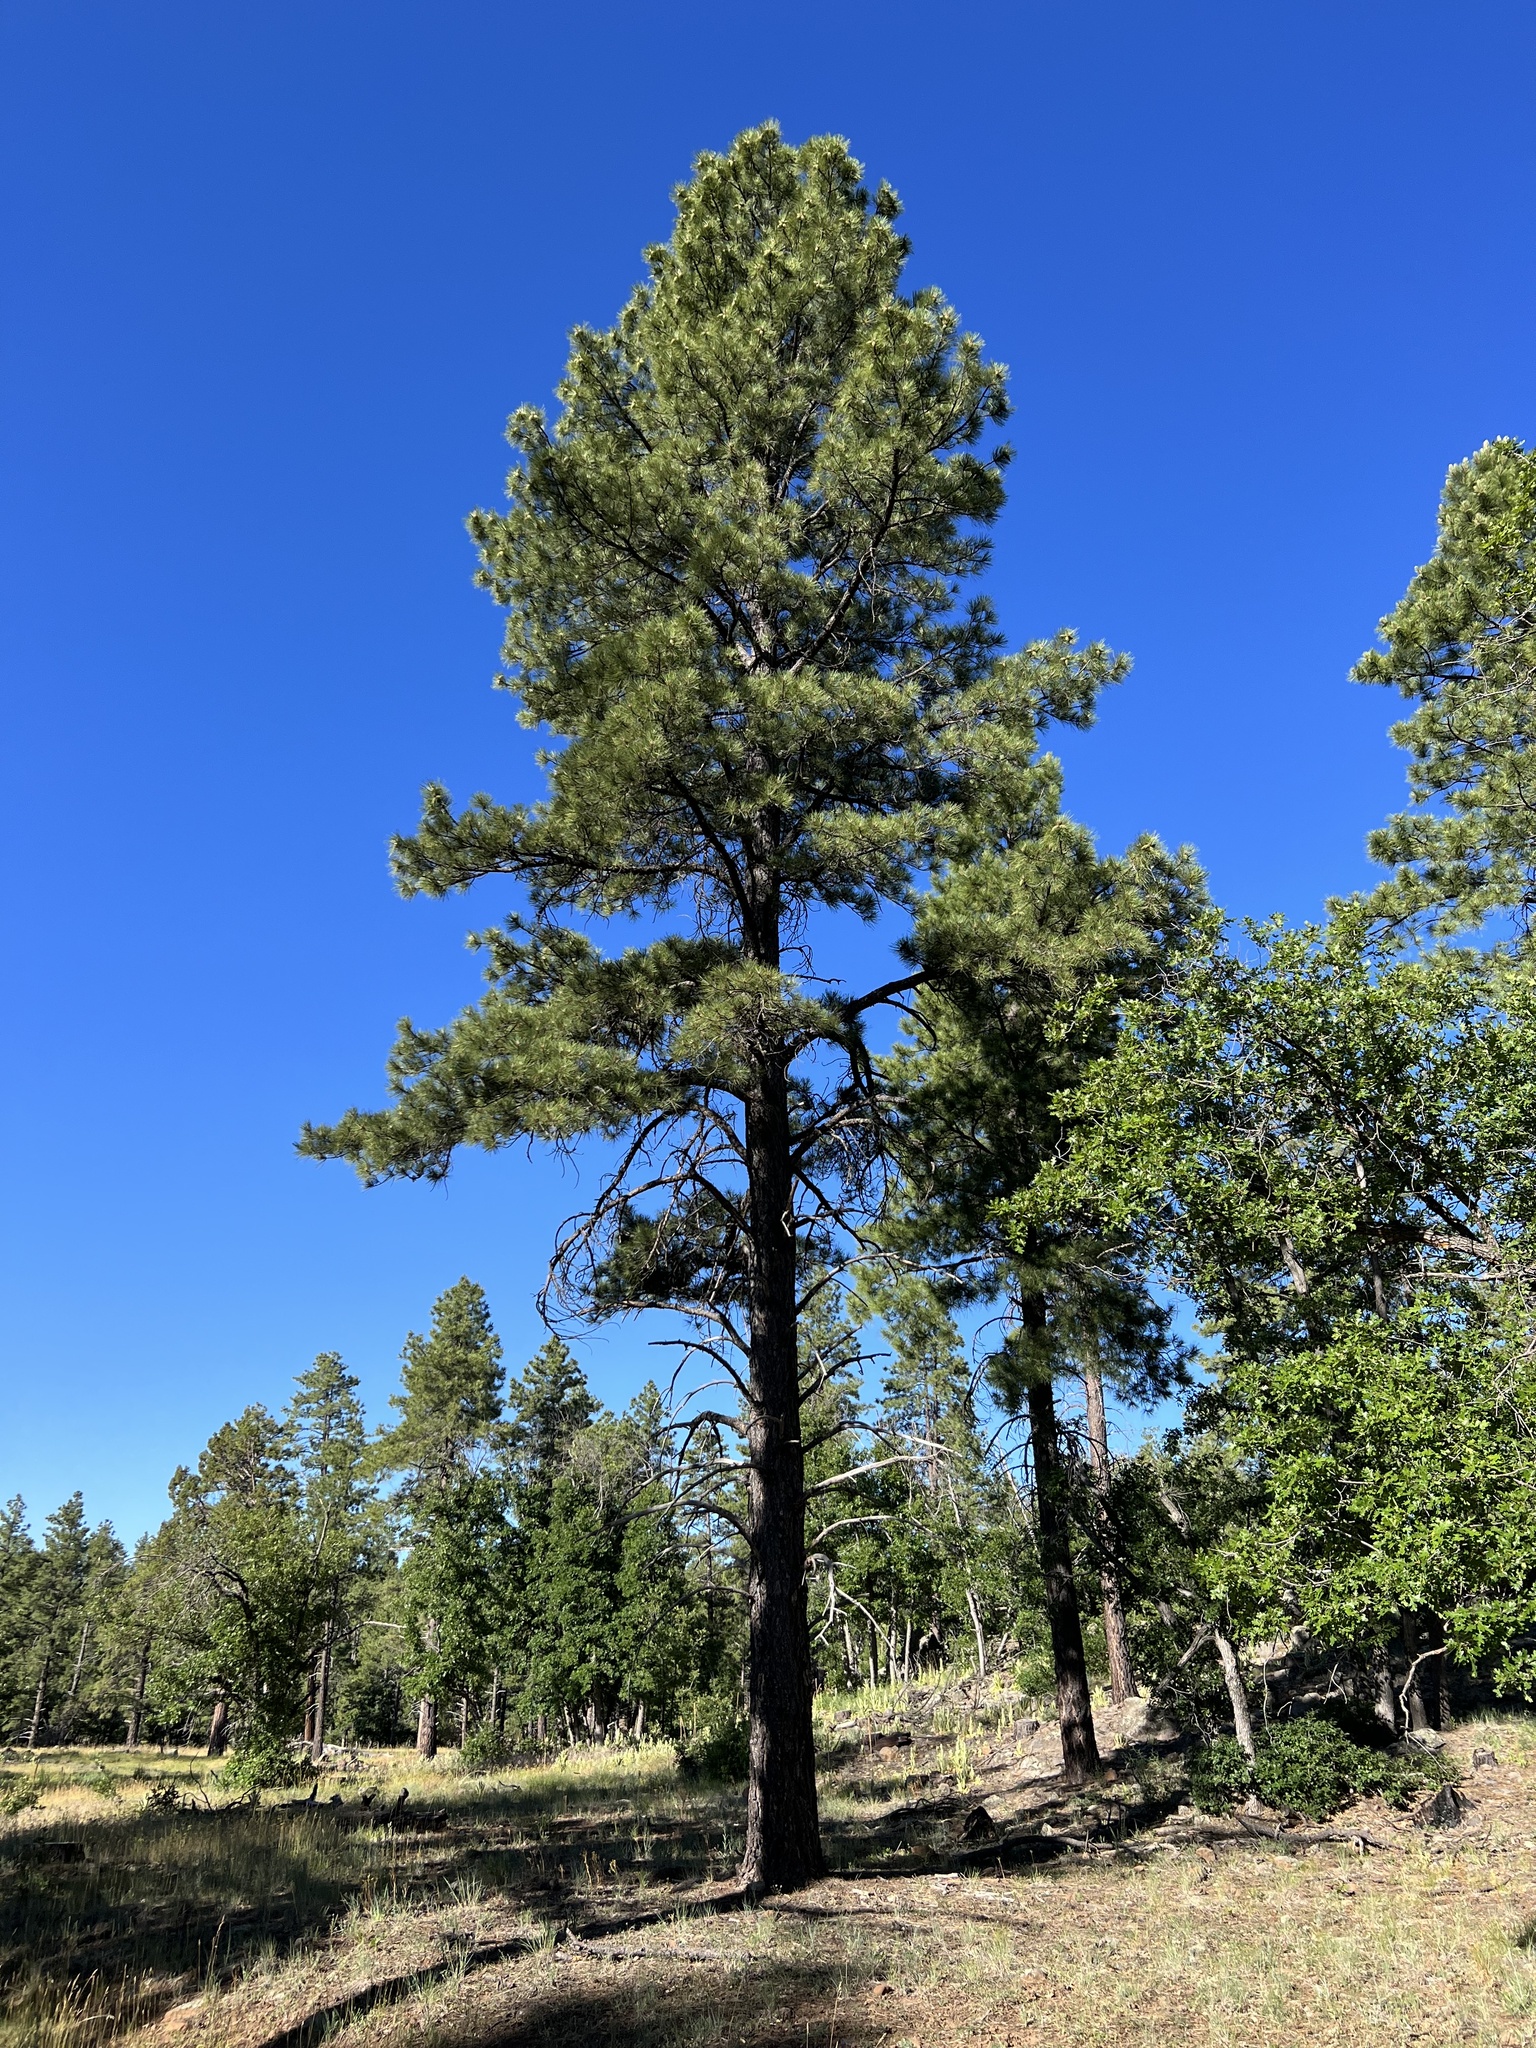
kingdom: Plantae
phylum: Tracheophyta
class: Pinopsida
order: Pinales
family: Pinaceae
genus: Pinus
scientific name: Pinus ponderosa
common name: Western yellow-pine
